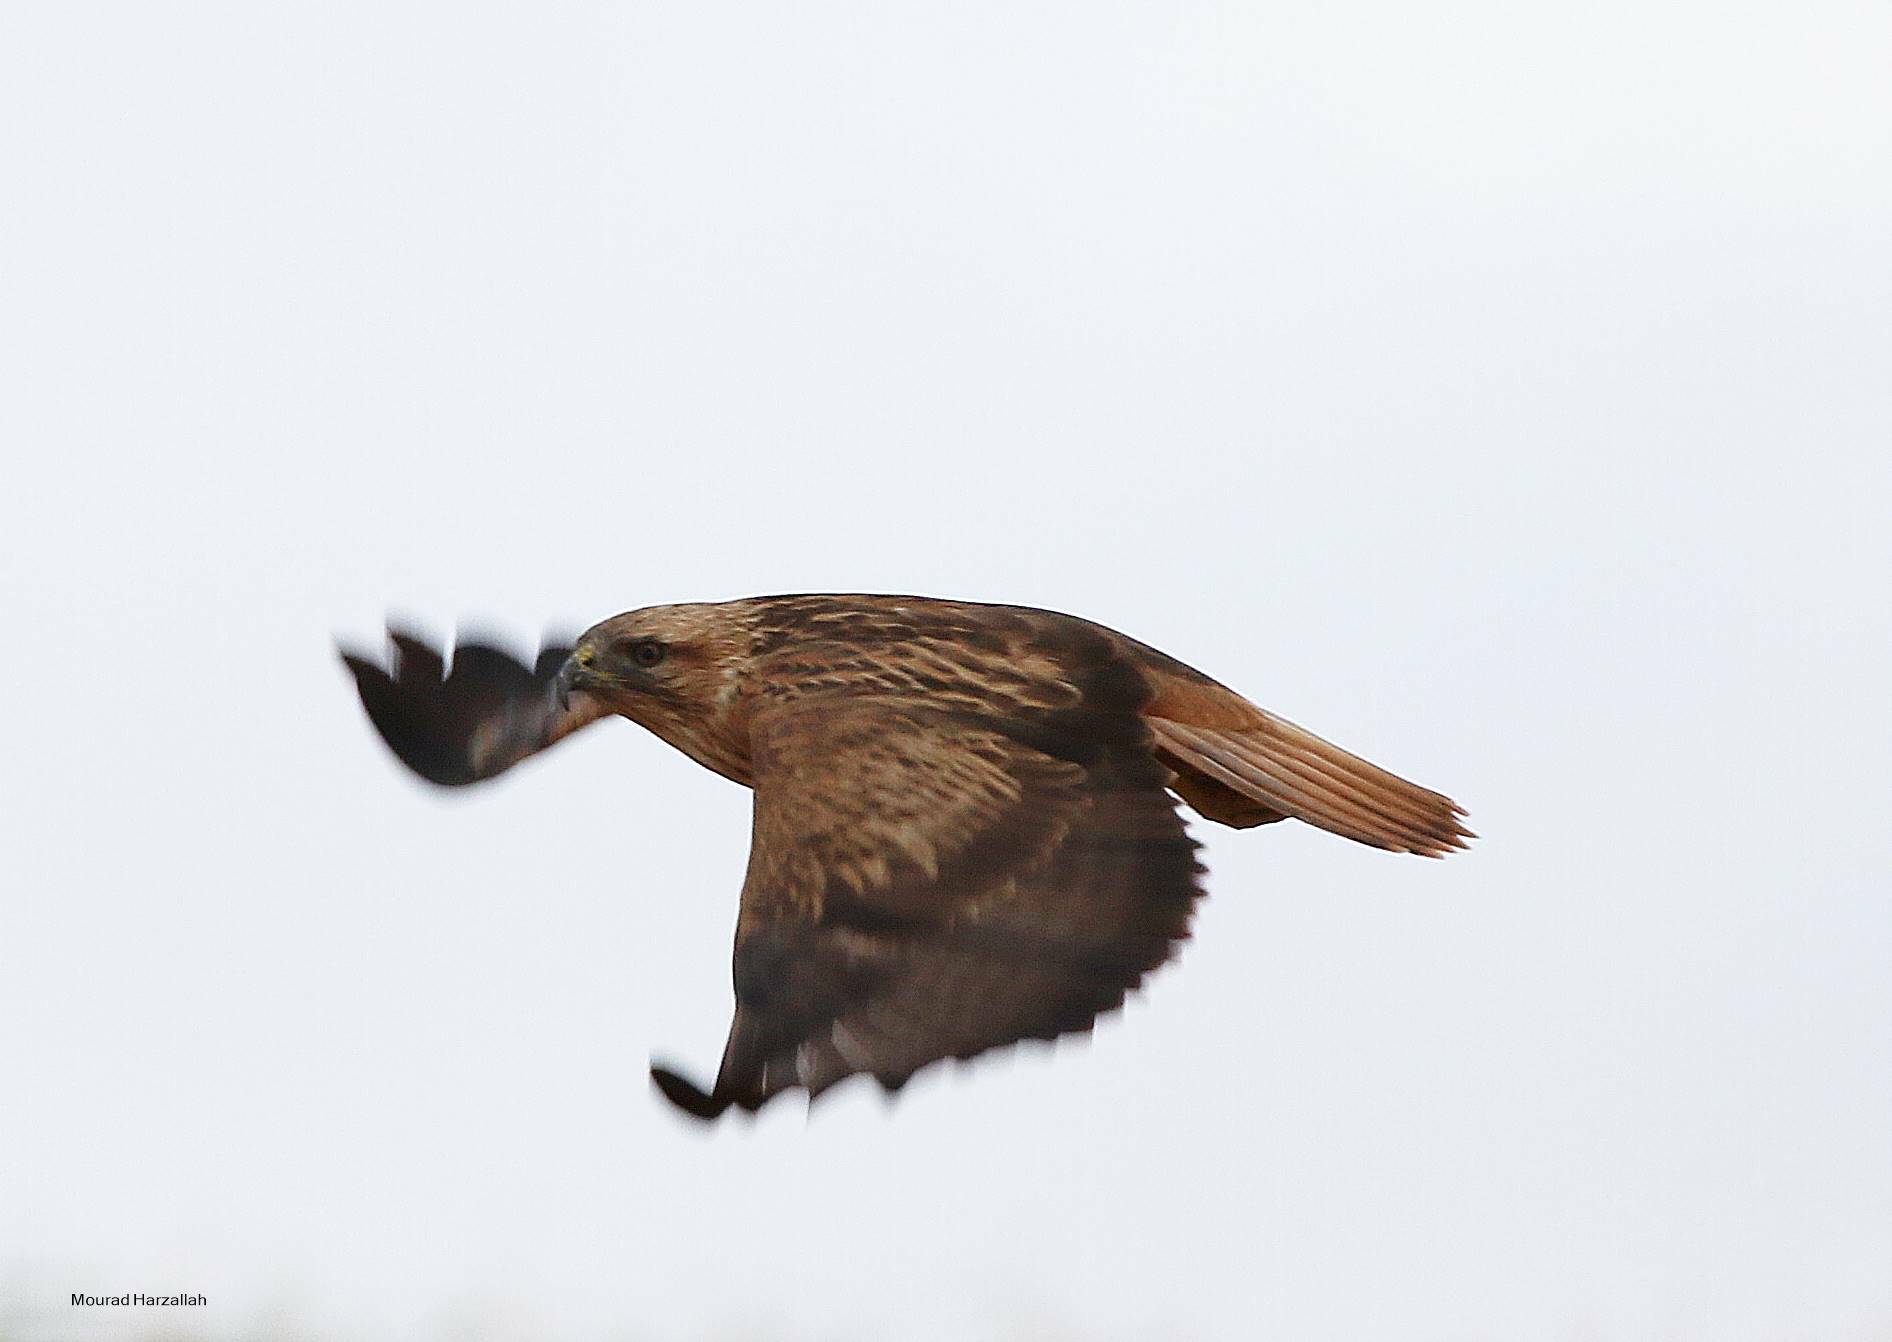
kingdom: Animalia
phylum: Chordata
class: Aves
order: Accipitriformes
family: Accipitridae
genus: Buteo
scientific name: Buteo rufinus
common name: Long-legged buzzard
